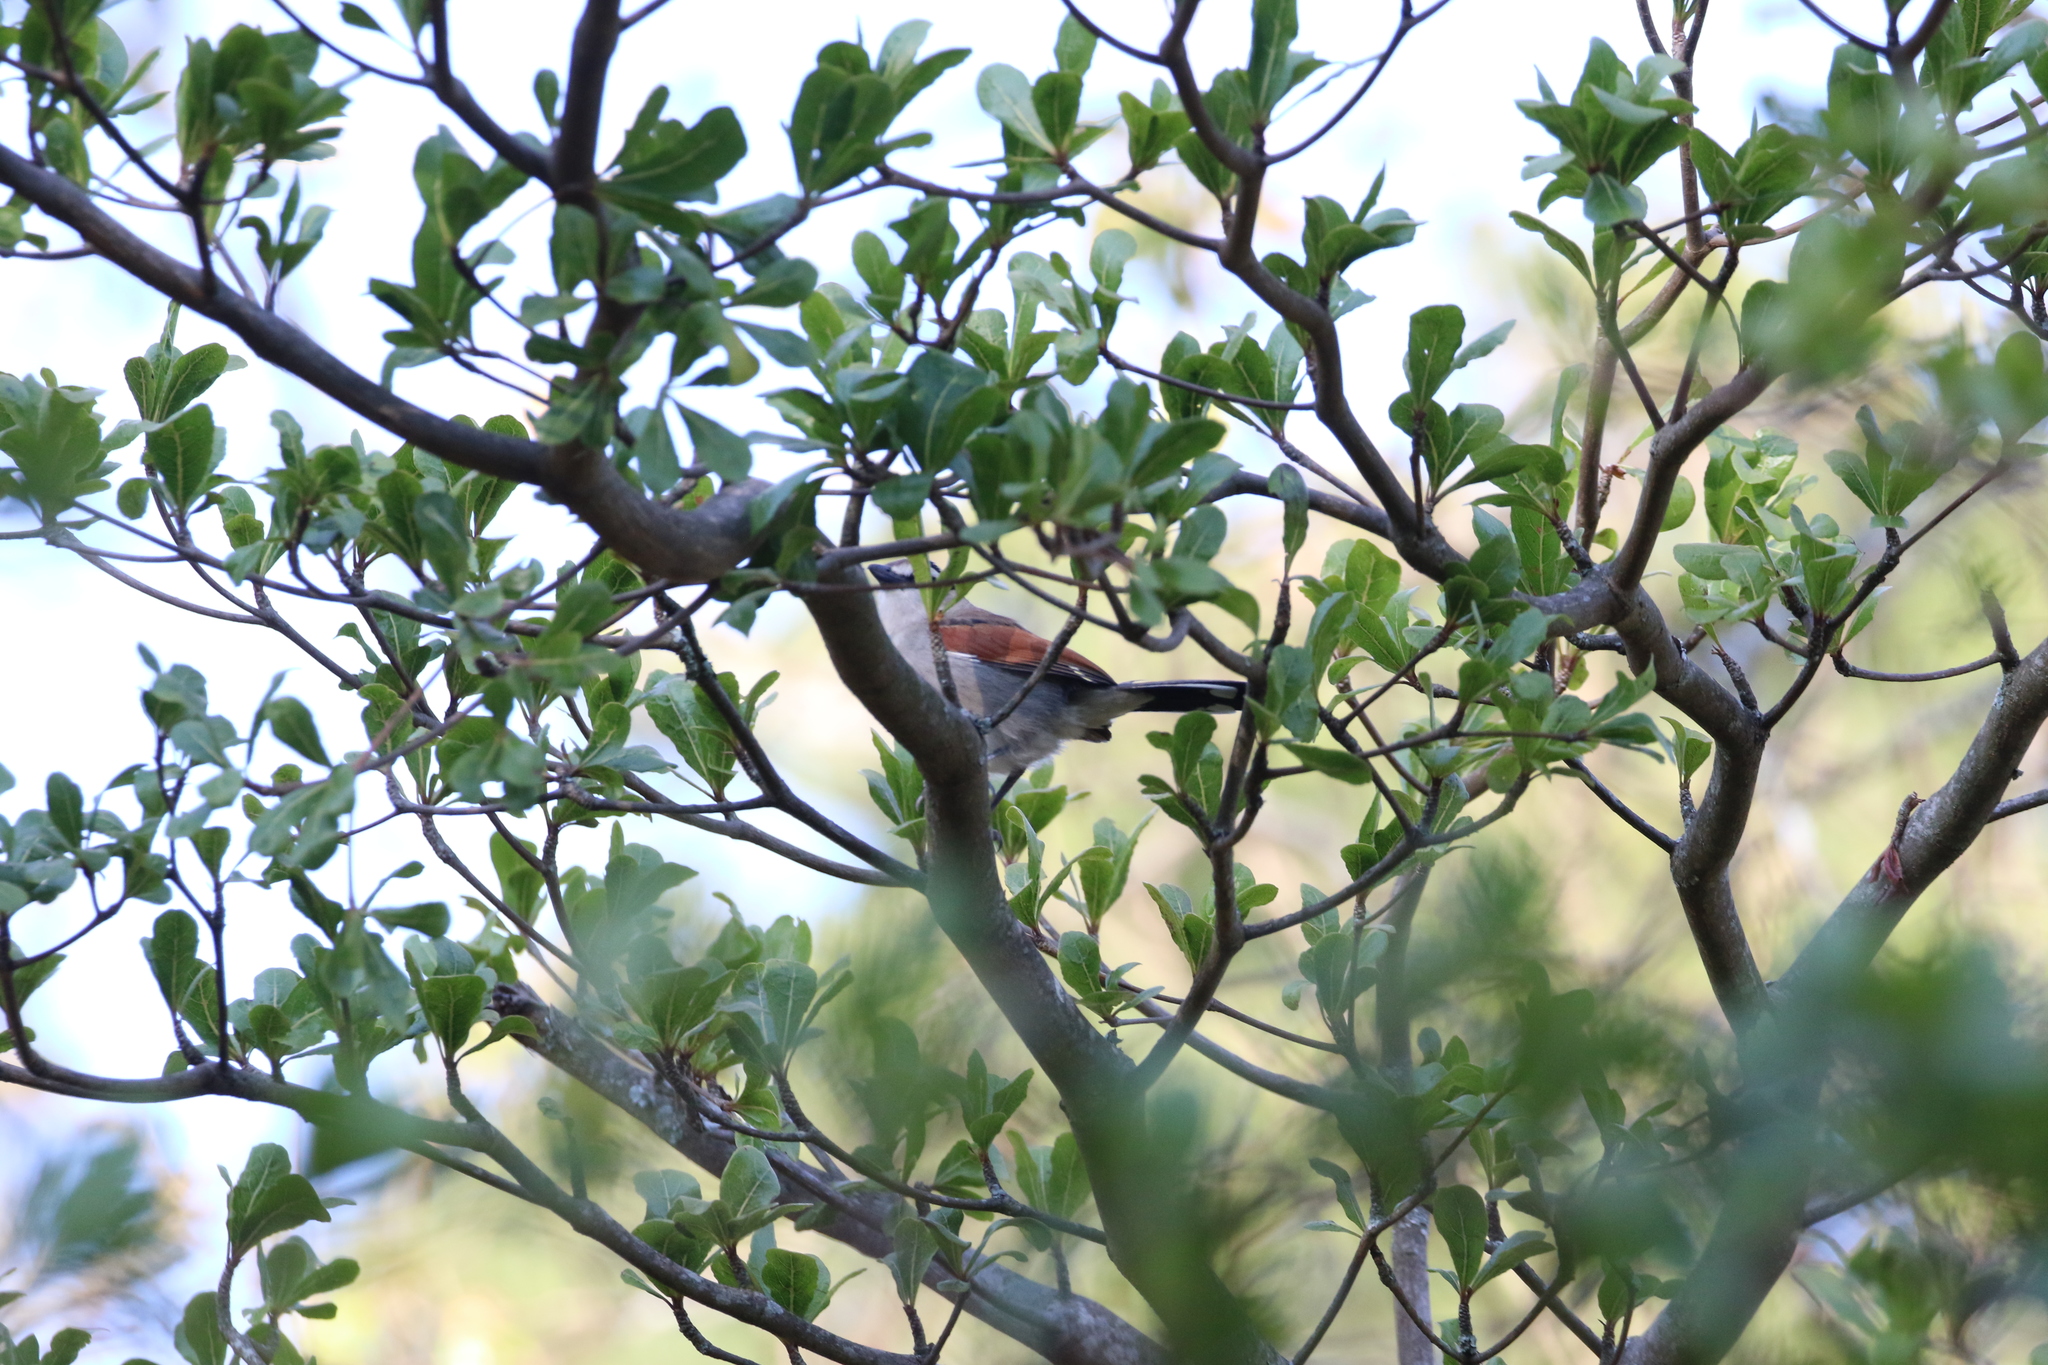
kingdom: Animalia
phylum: Chordata
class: Aves
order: Passeriformes
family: Malaconotidae
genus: Tchagra
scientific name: Tchagra australis
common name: Brown-crowned tchagra
